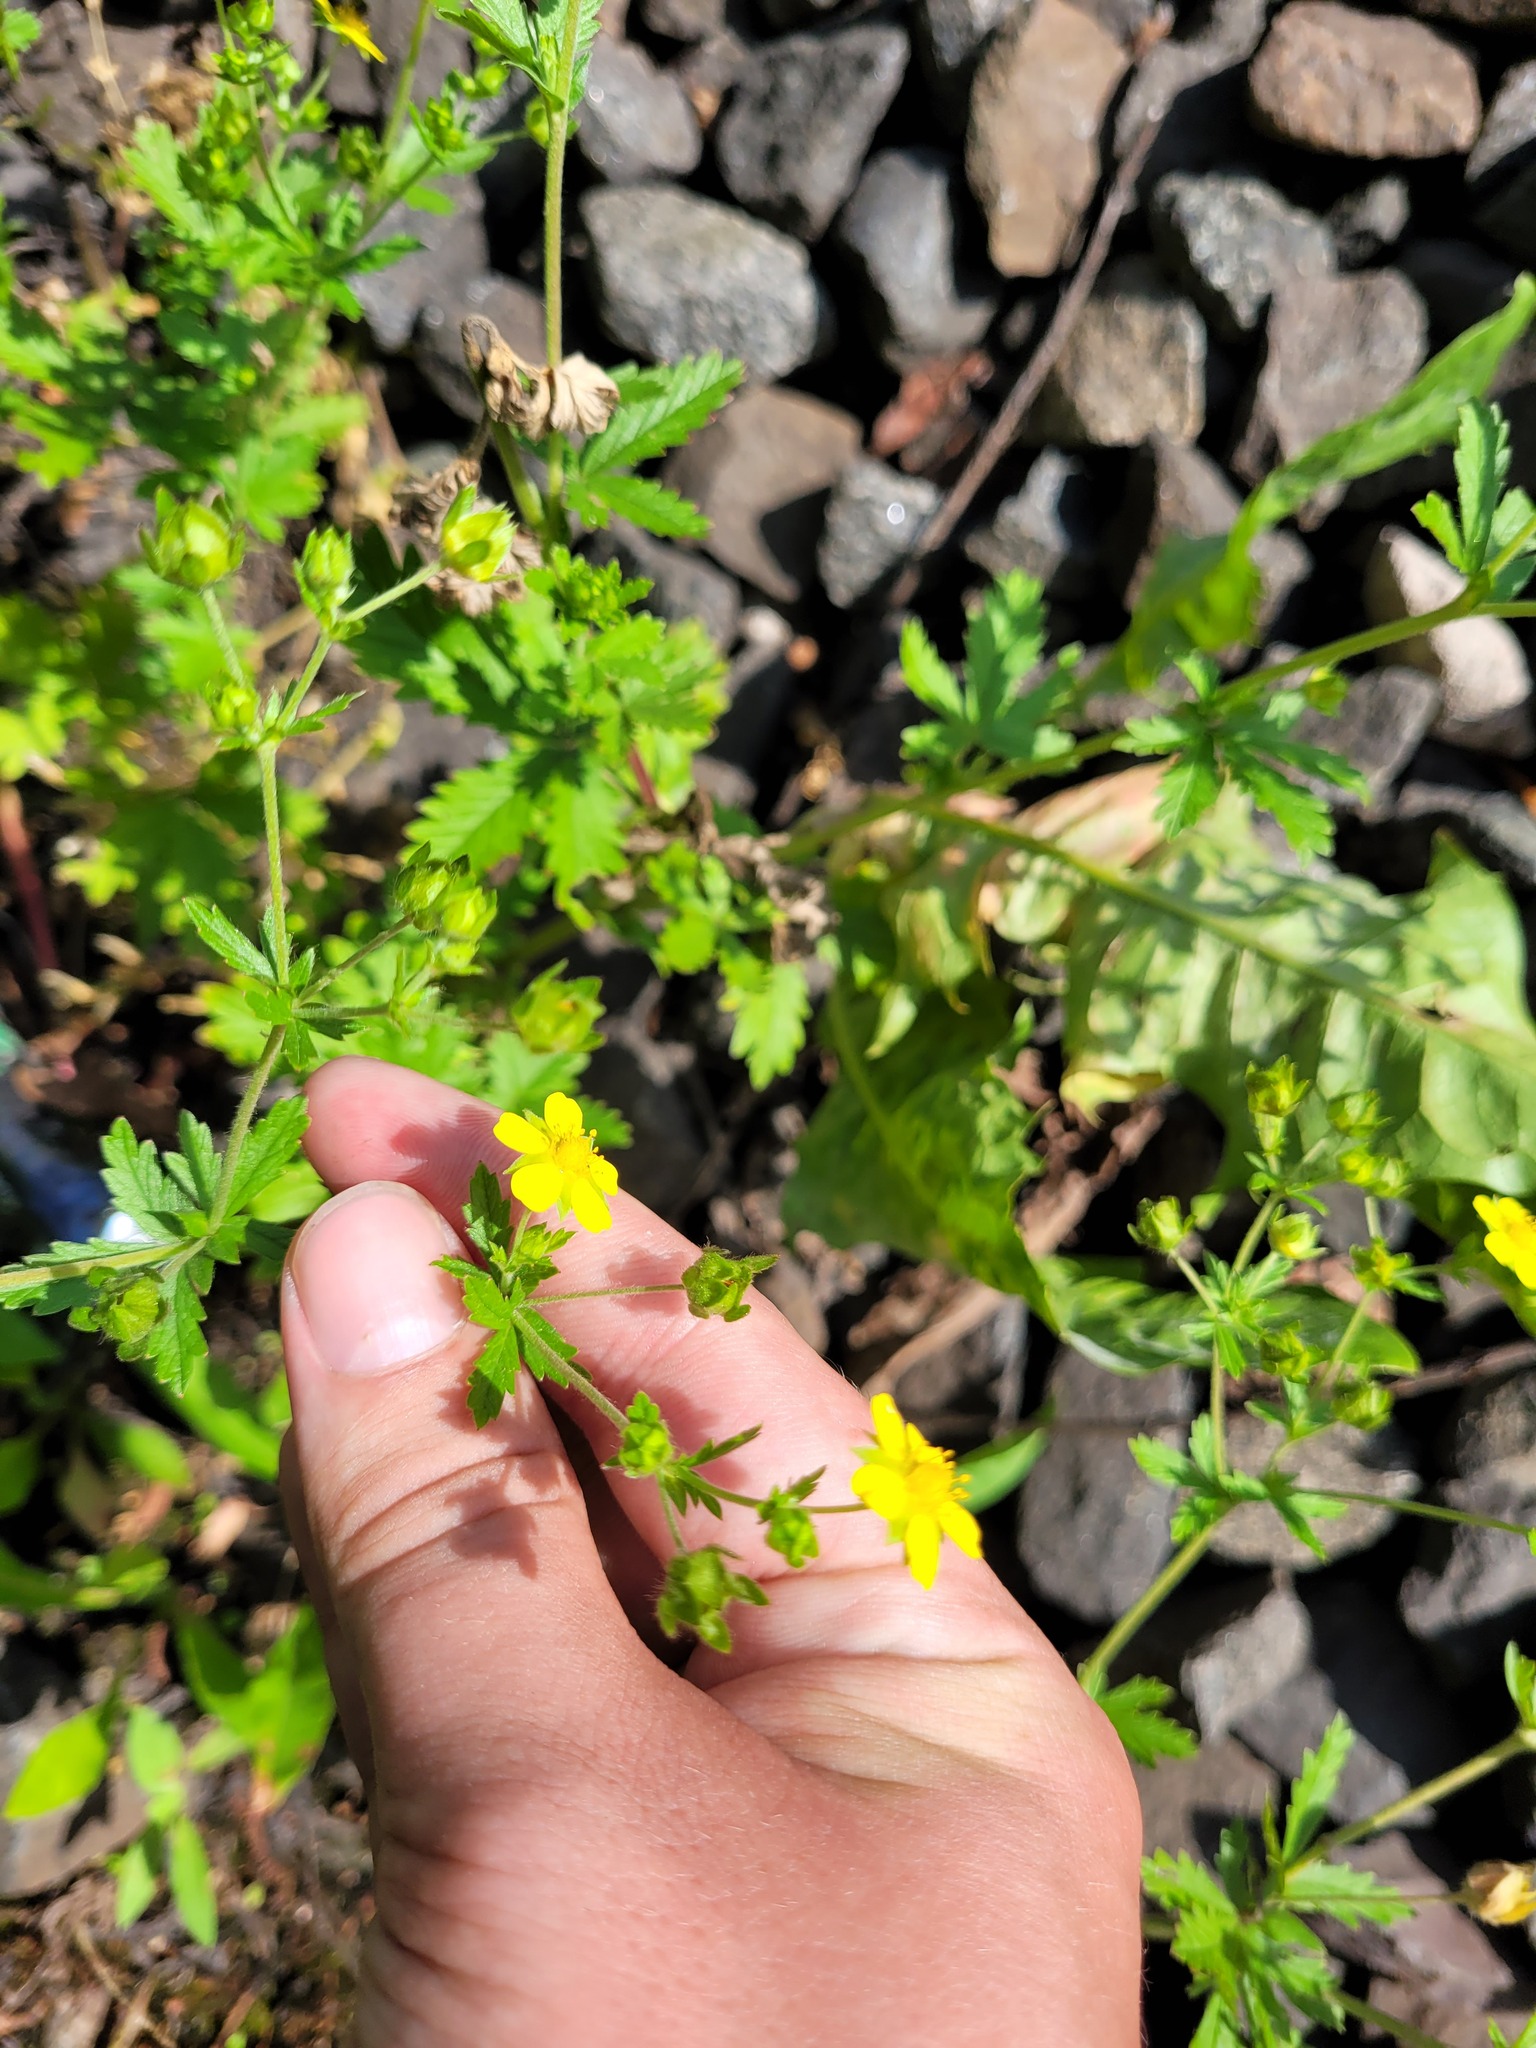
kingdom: Plantae
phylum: Tracheophyta
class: Magnoliopsida
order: Rosales
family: Rosaceae
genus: Potentilla
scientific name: Potentilla intermedia
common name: Downy cinquefoil
